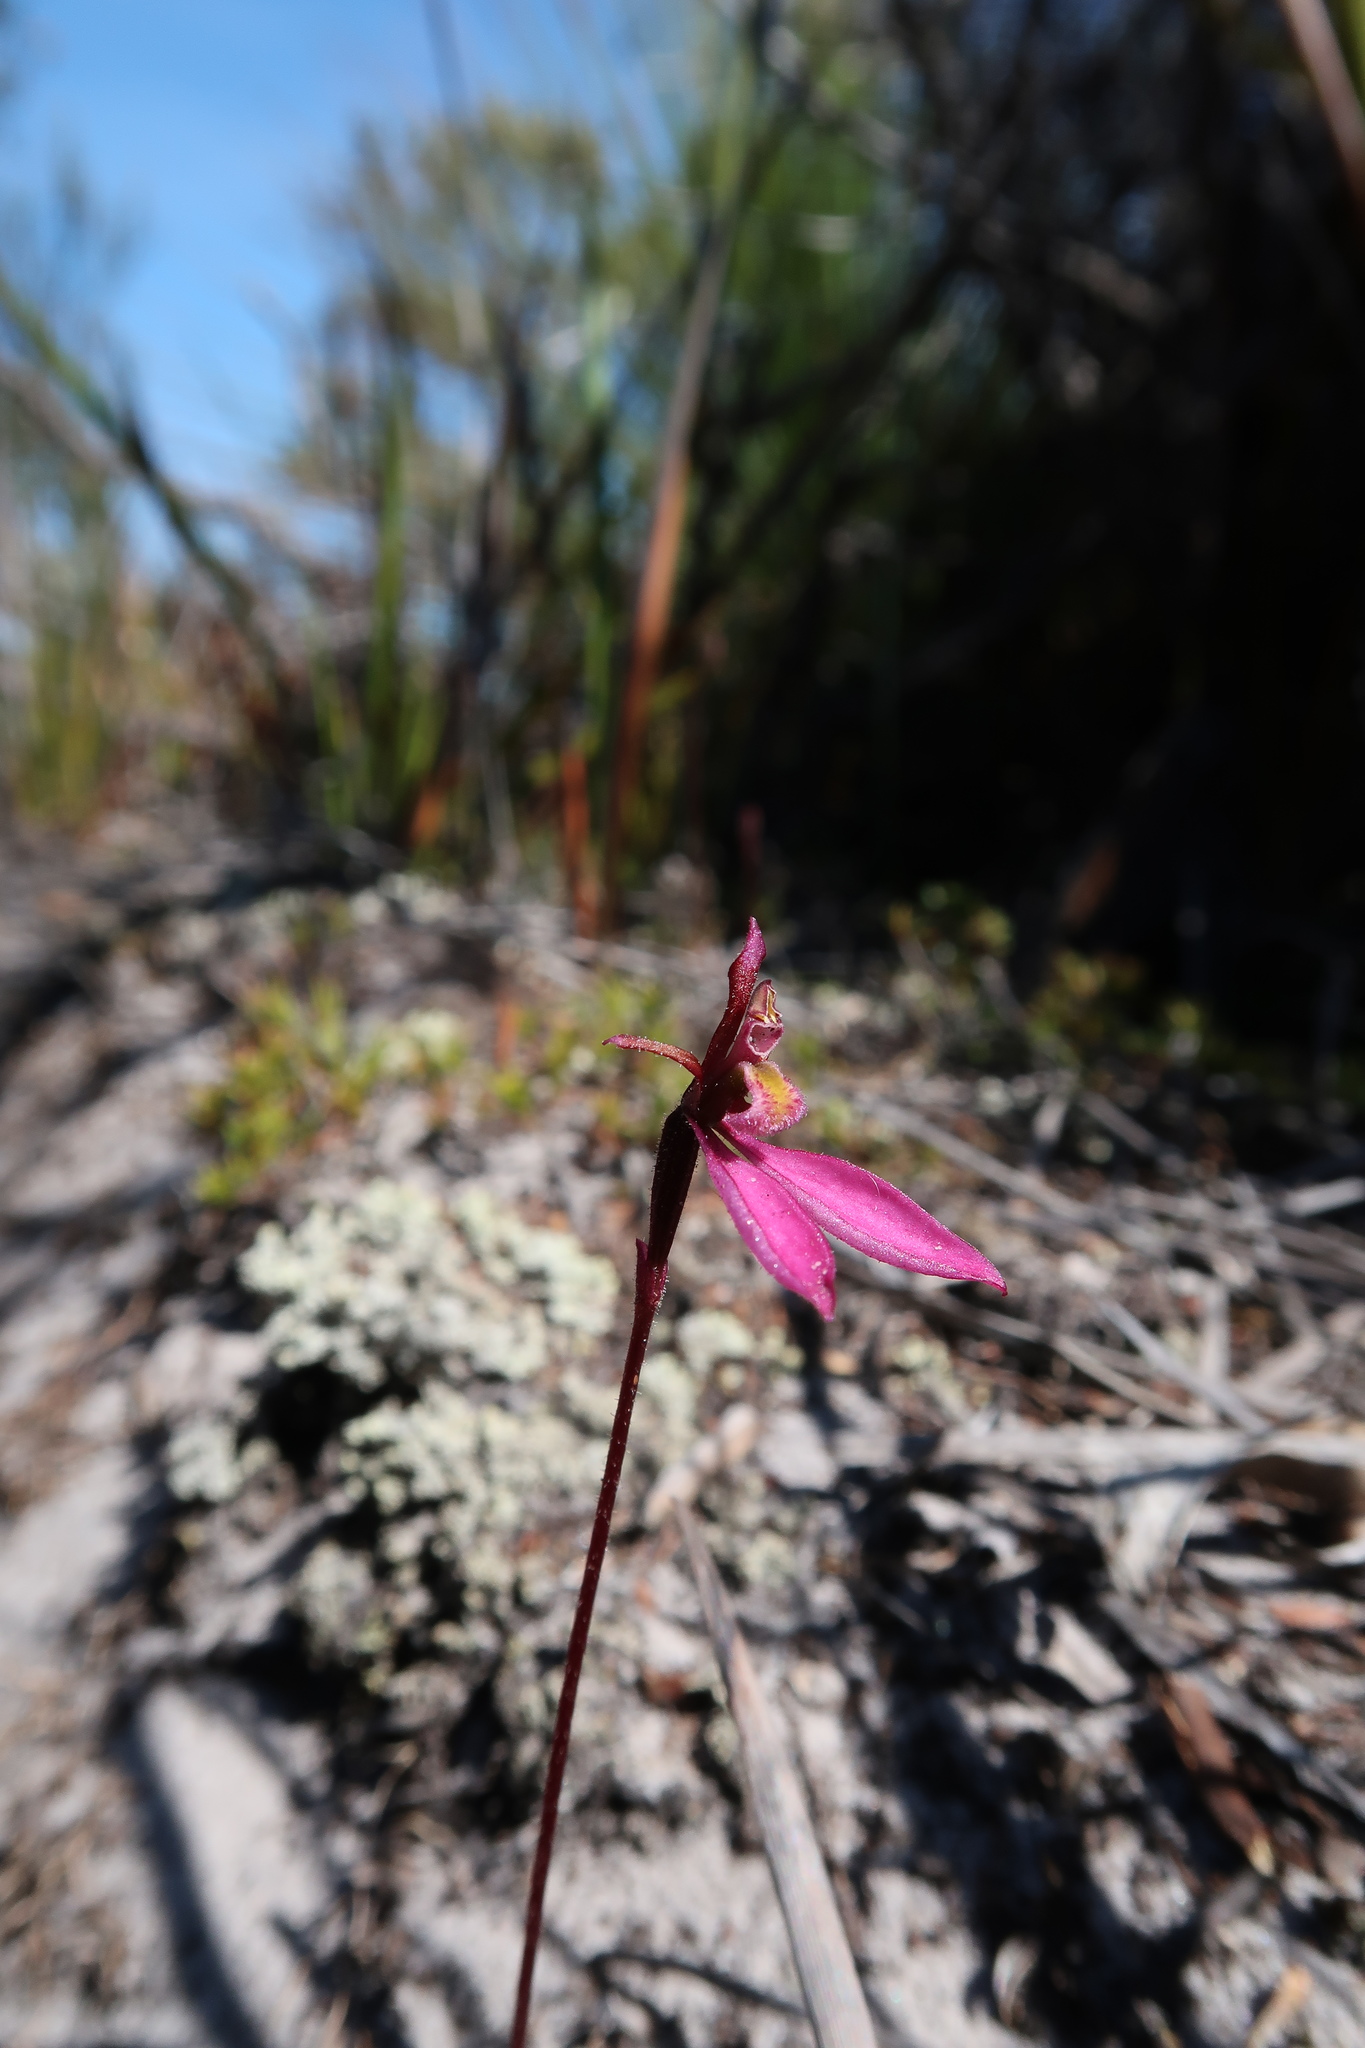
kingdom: Plantae
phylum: Tracheophyta
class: Liliopsida
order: Asparagales
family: Orchidaceae
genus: Eriochilus
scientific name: Eriochilus cucullatus
